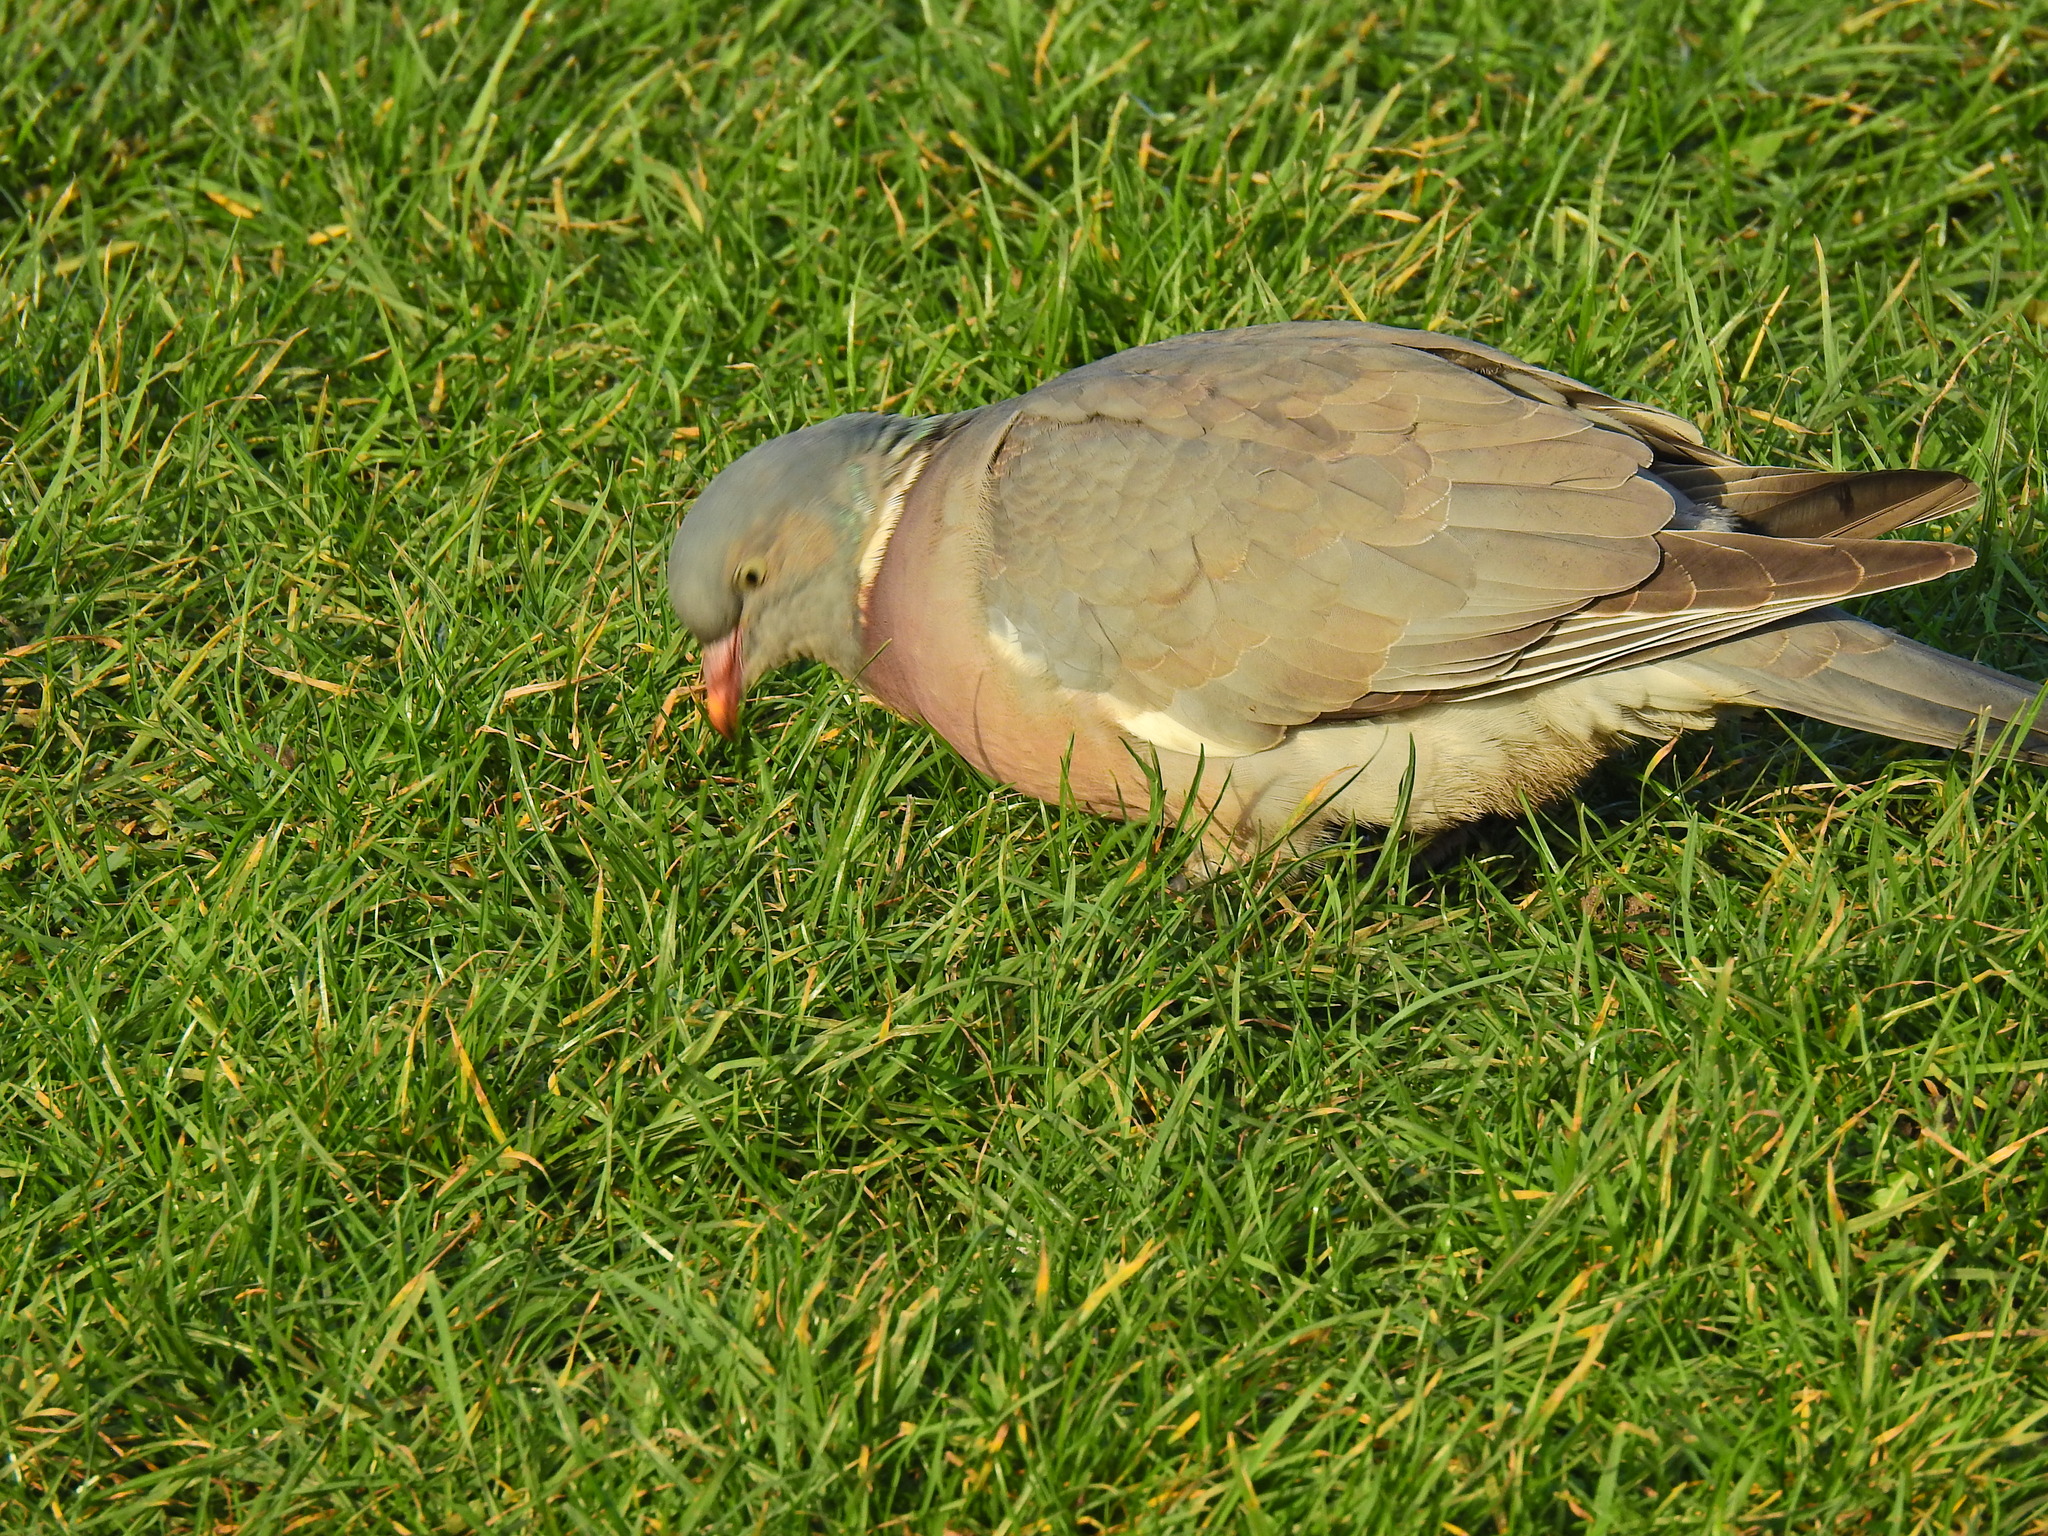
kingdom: Animalia
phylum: Chordata
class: Aves
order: Columbiformes
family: Columbidae
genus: Columba
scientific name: Columba palumbus
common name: Common wood pigeon
